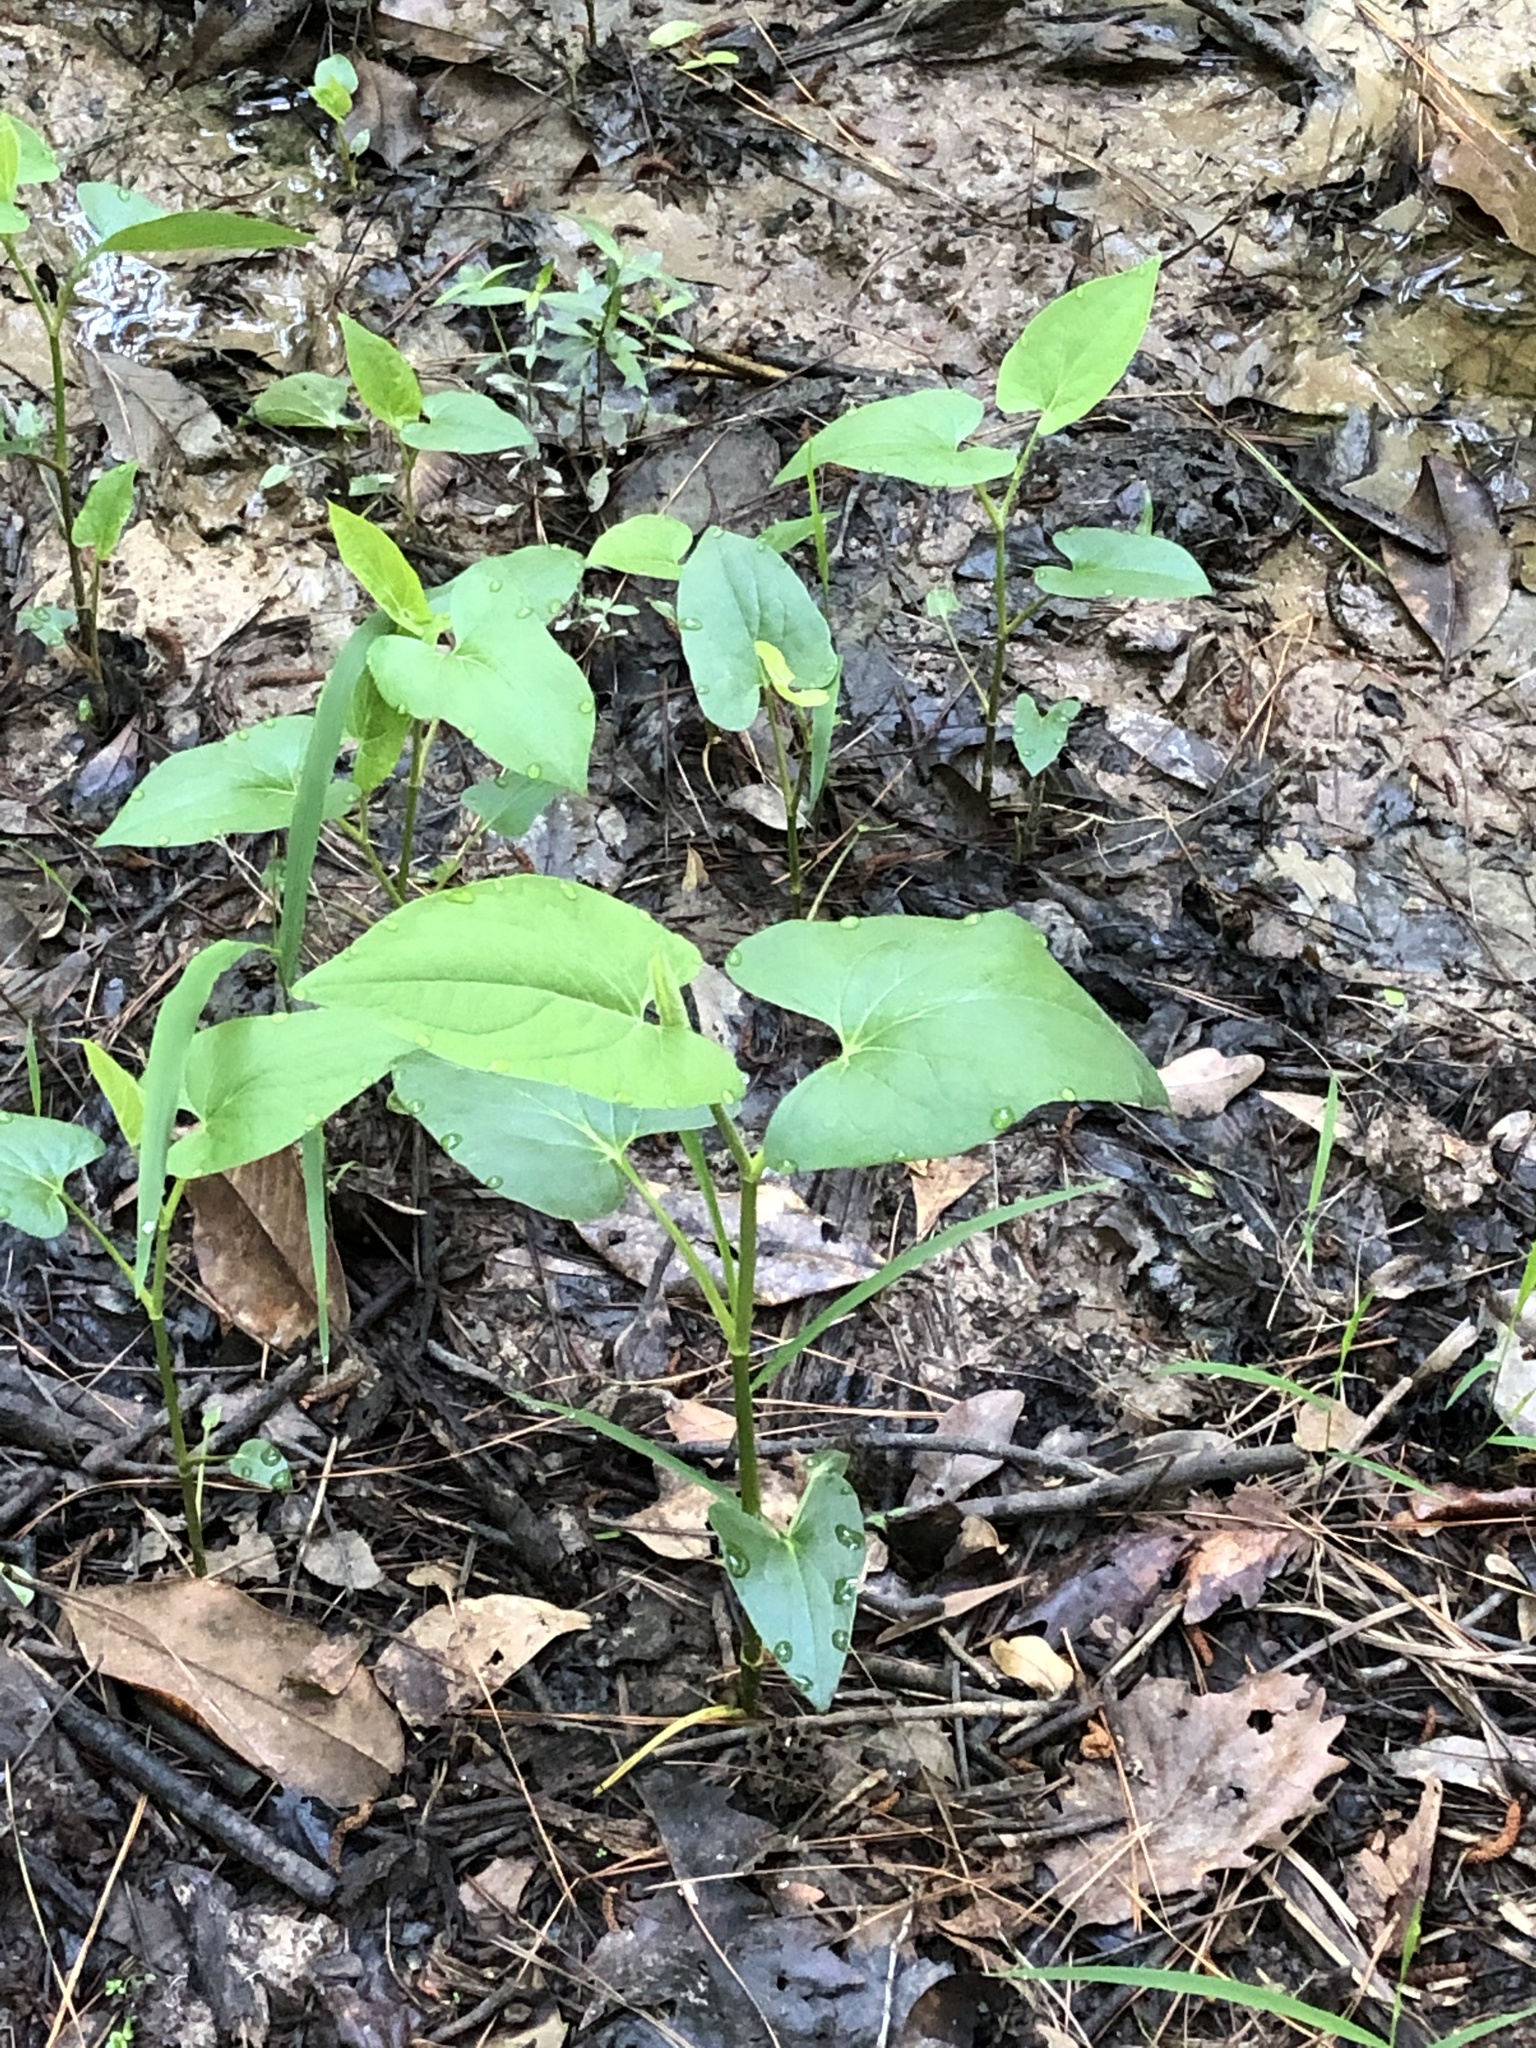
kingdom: Plantae
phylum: Tracheophyta
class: Magnoliopsida
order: Piperales
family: Saururaceae
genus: Saururus
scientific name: Saururus cernuus
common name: Lizard's-tail
